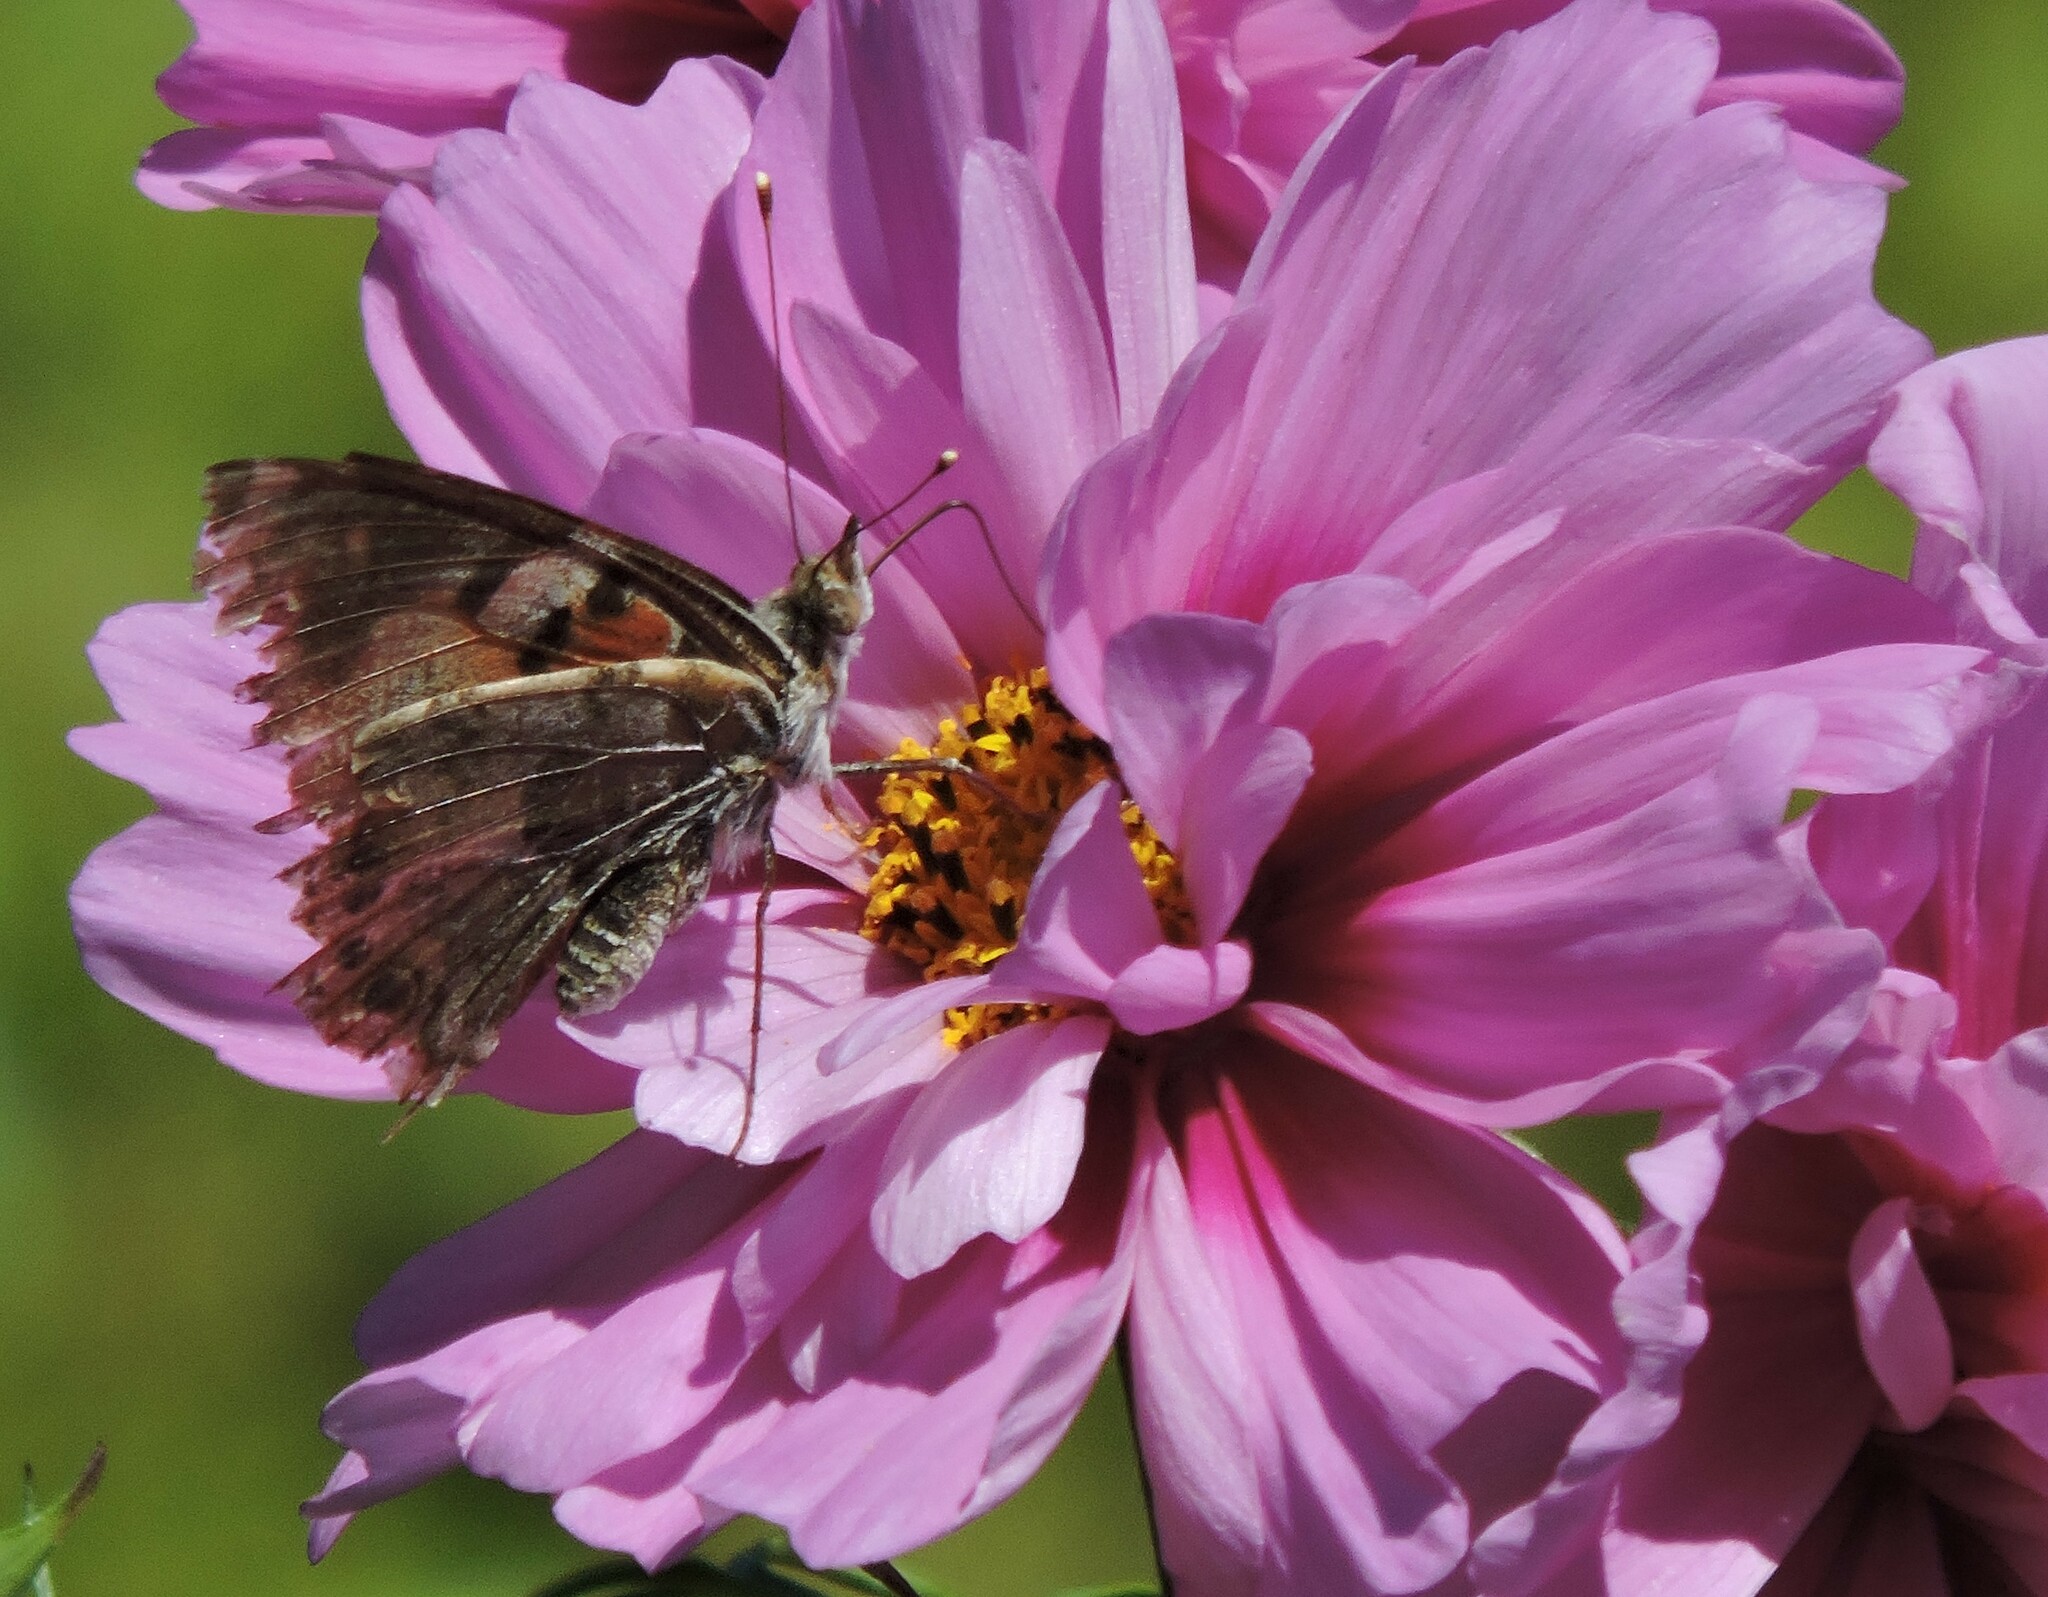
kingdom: Animalia
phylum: Arthropoda
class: Insecta
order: Lepidoptera
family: Nymphalidae
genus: Vanessa
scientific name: Vanessa cardui
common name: Painted lady
